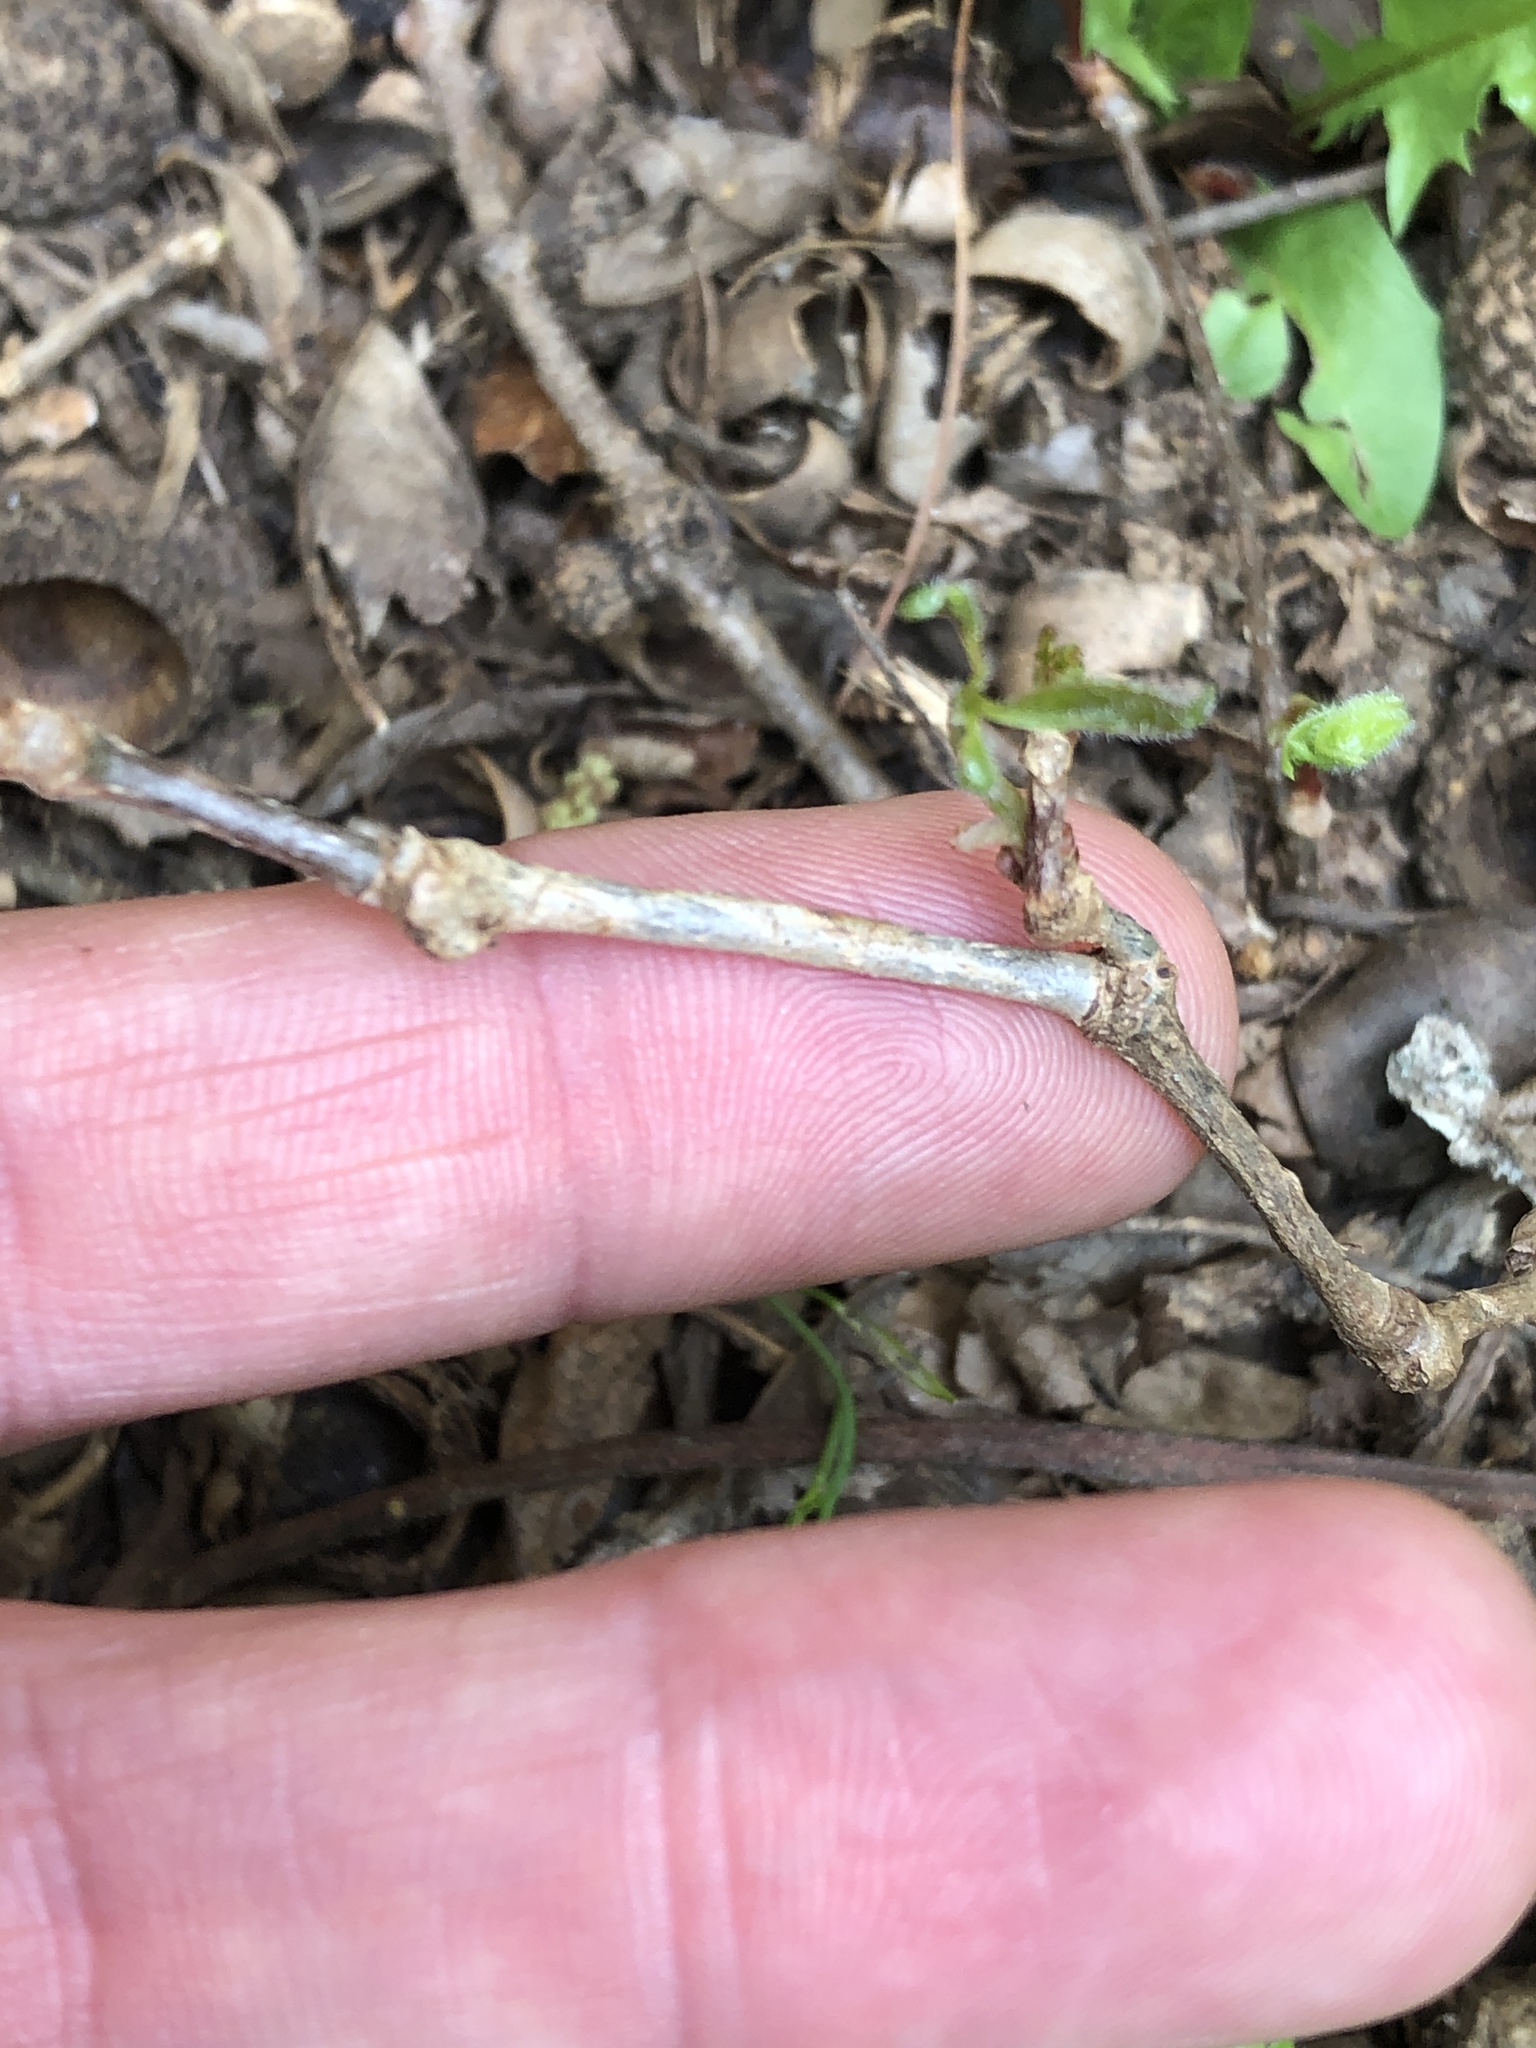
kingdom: Plantae
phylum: Tracheophyta
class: Magnoliopsida
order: Vitales
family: Vitaceae
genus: Parthenocissus
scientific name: Parthenocissus quinquefolia
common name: Virginia-creeper
